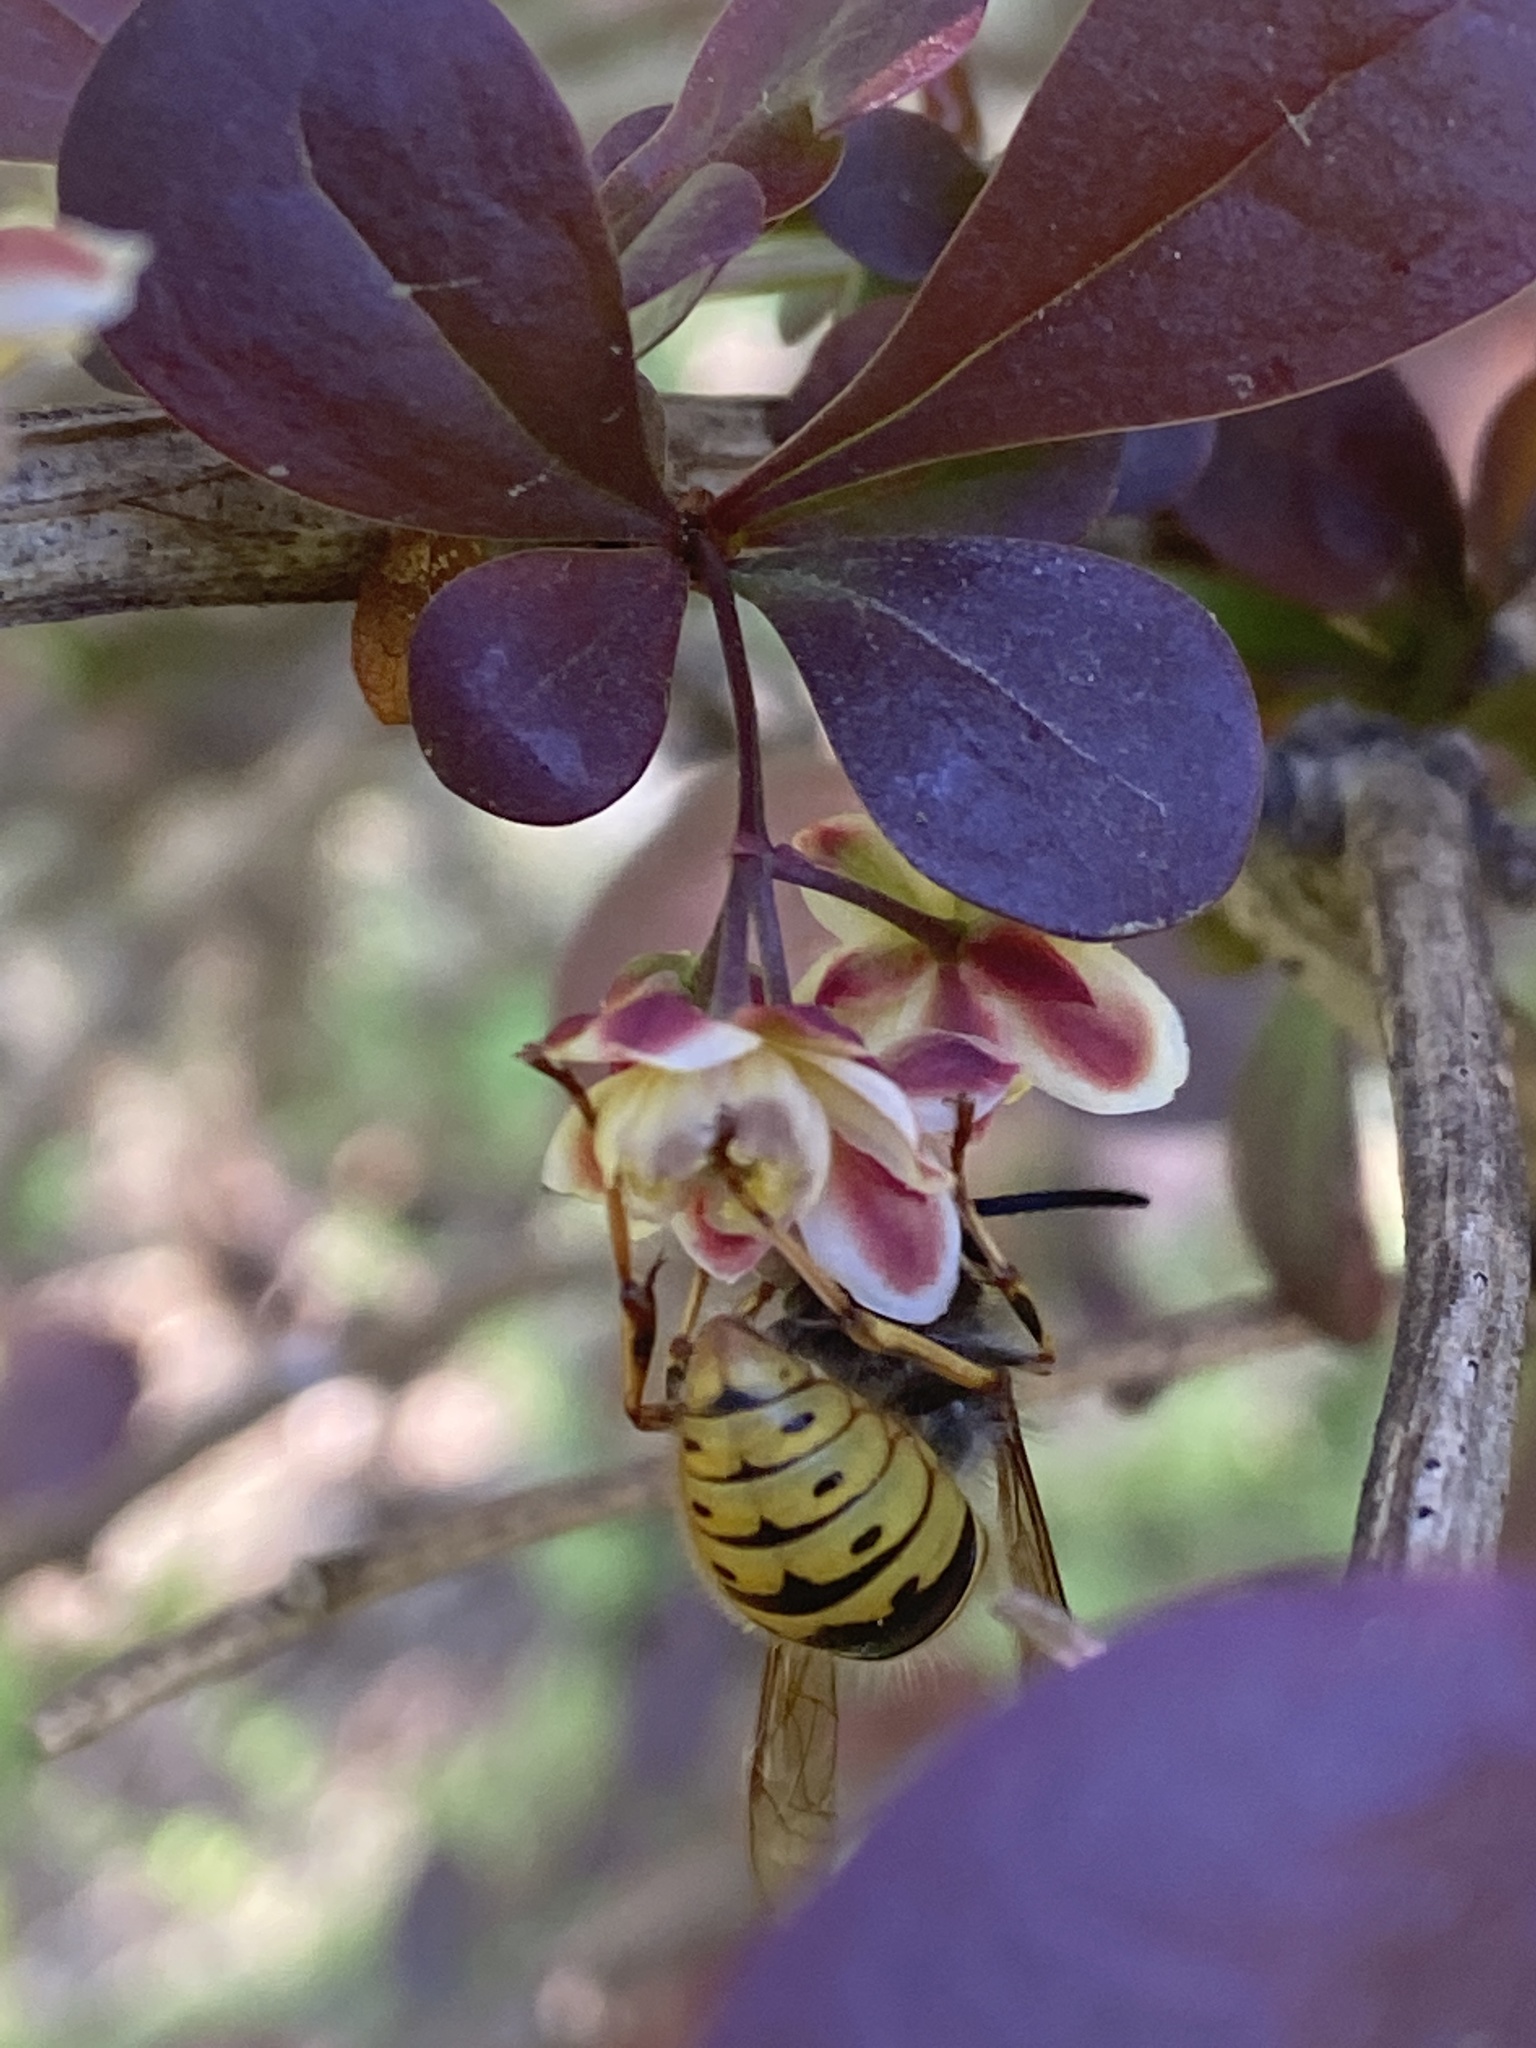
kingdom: Animalia
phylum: Arthropoda
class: Insecta
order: Hymenoptera
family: Vespidae
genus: Vespula
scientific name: Vespula vulgaris
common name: Common wasp
